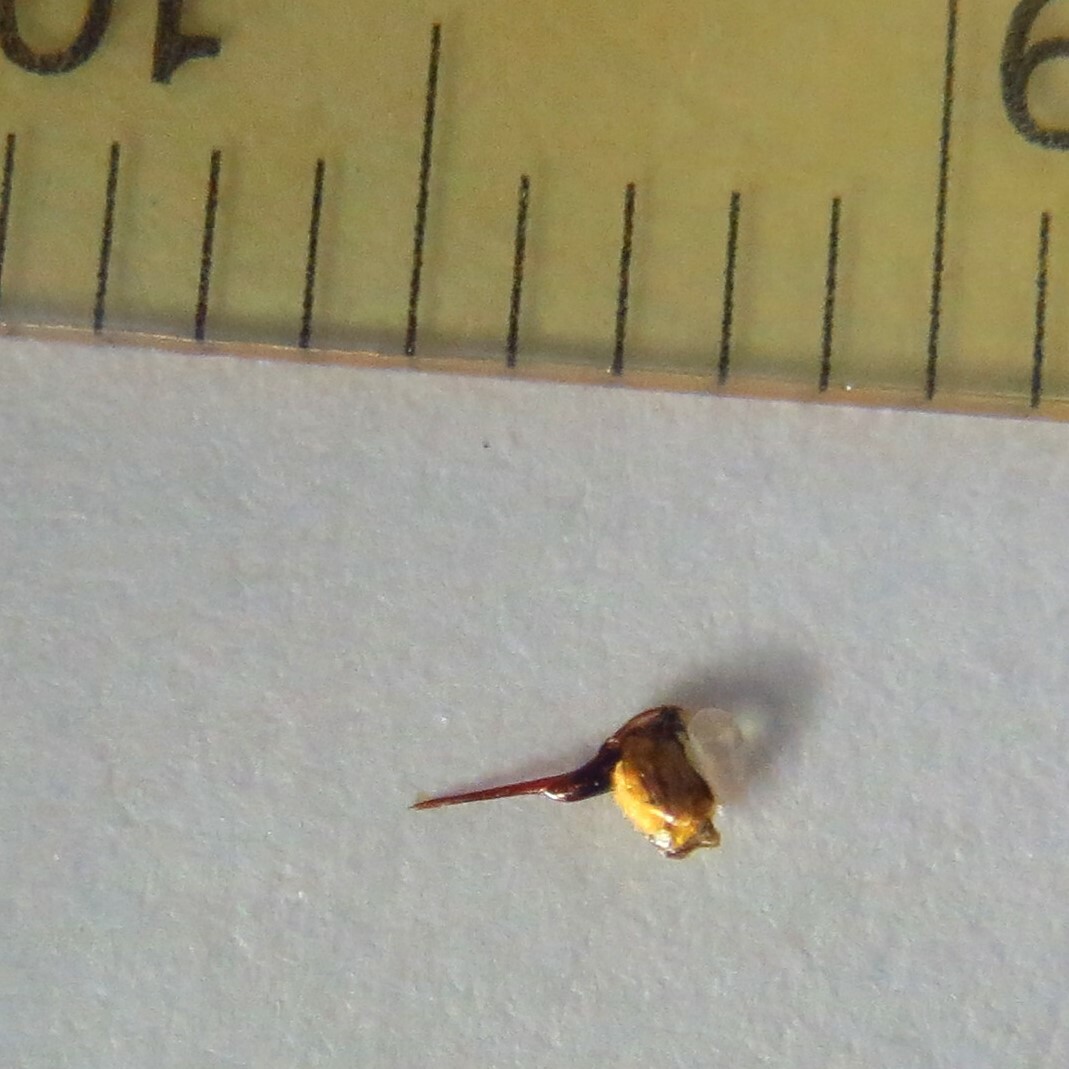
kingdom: Animalia
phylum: Arthropoda
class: Insecta
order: Hymenoptera
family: Apidae
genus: Apis
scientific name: Apis mellifera
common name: Honey bee
